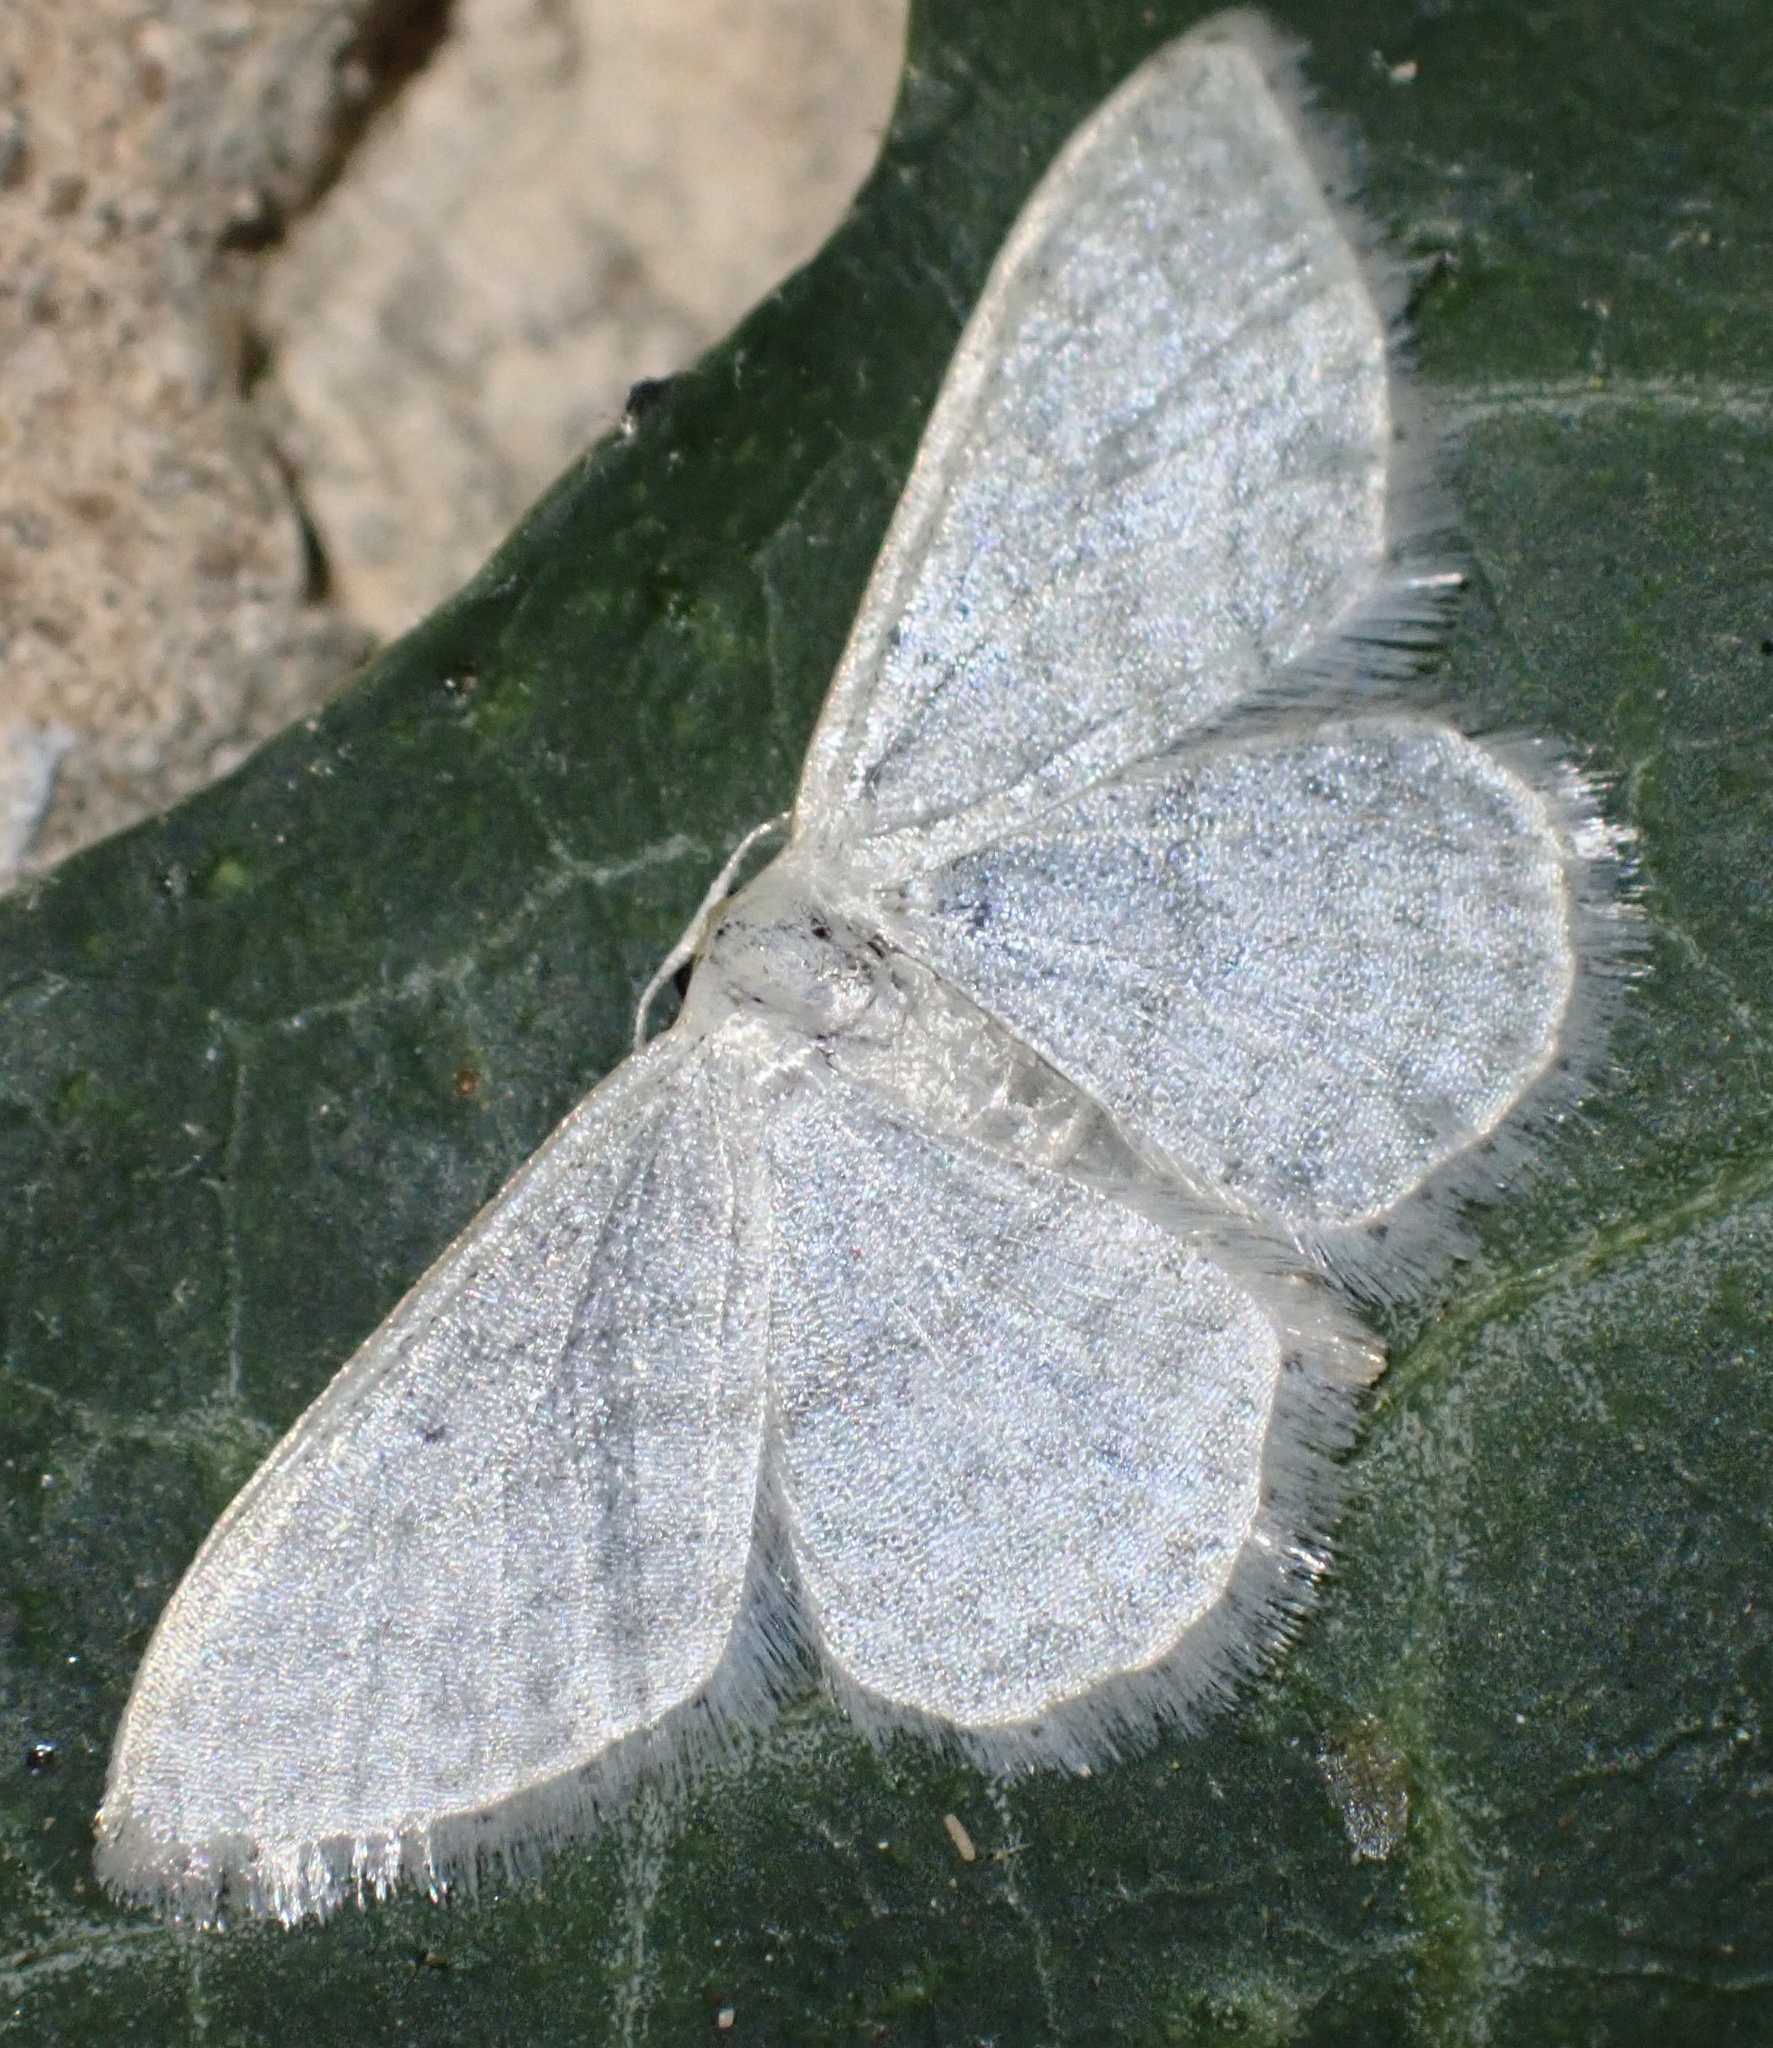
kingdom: Animalia
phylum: Arthropoda
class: Insecta
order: Lepidoptera
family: Geometridae
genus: Idaea
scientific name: Idaea subsericeata
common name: Satin wave
